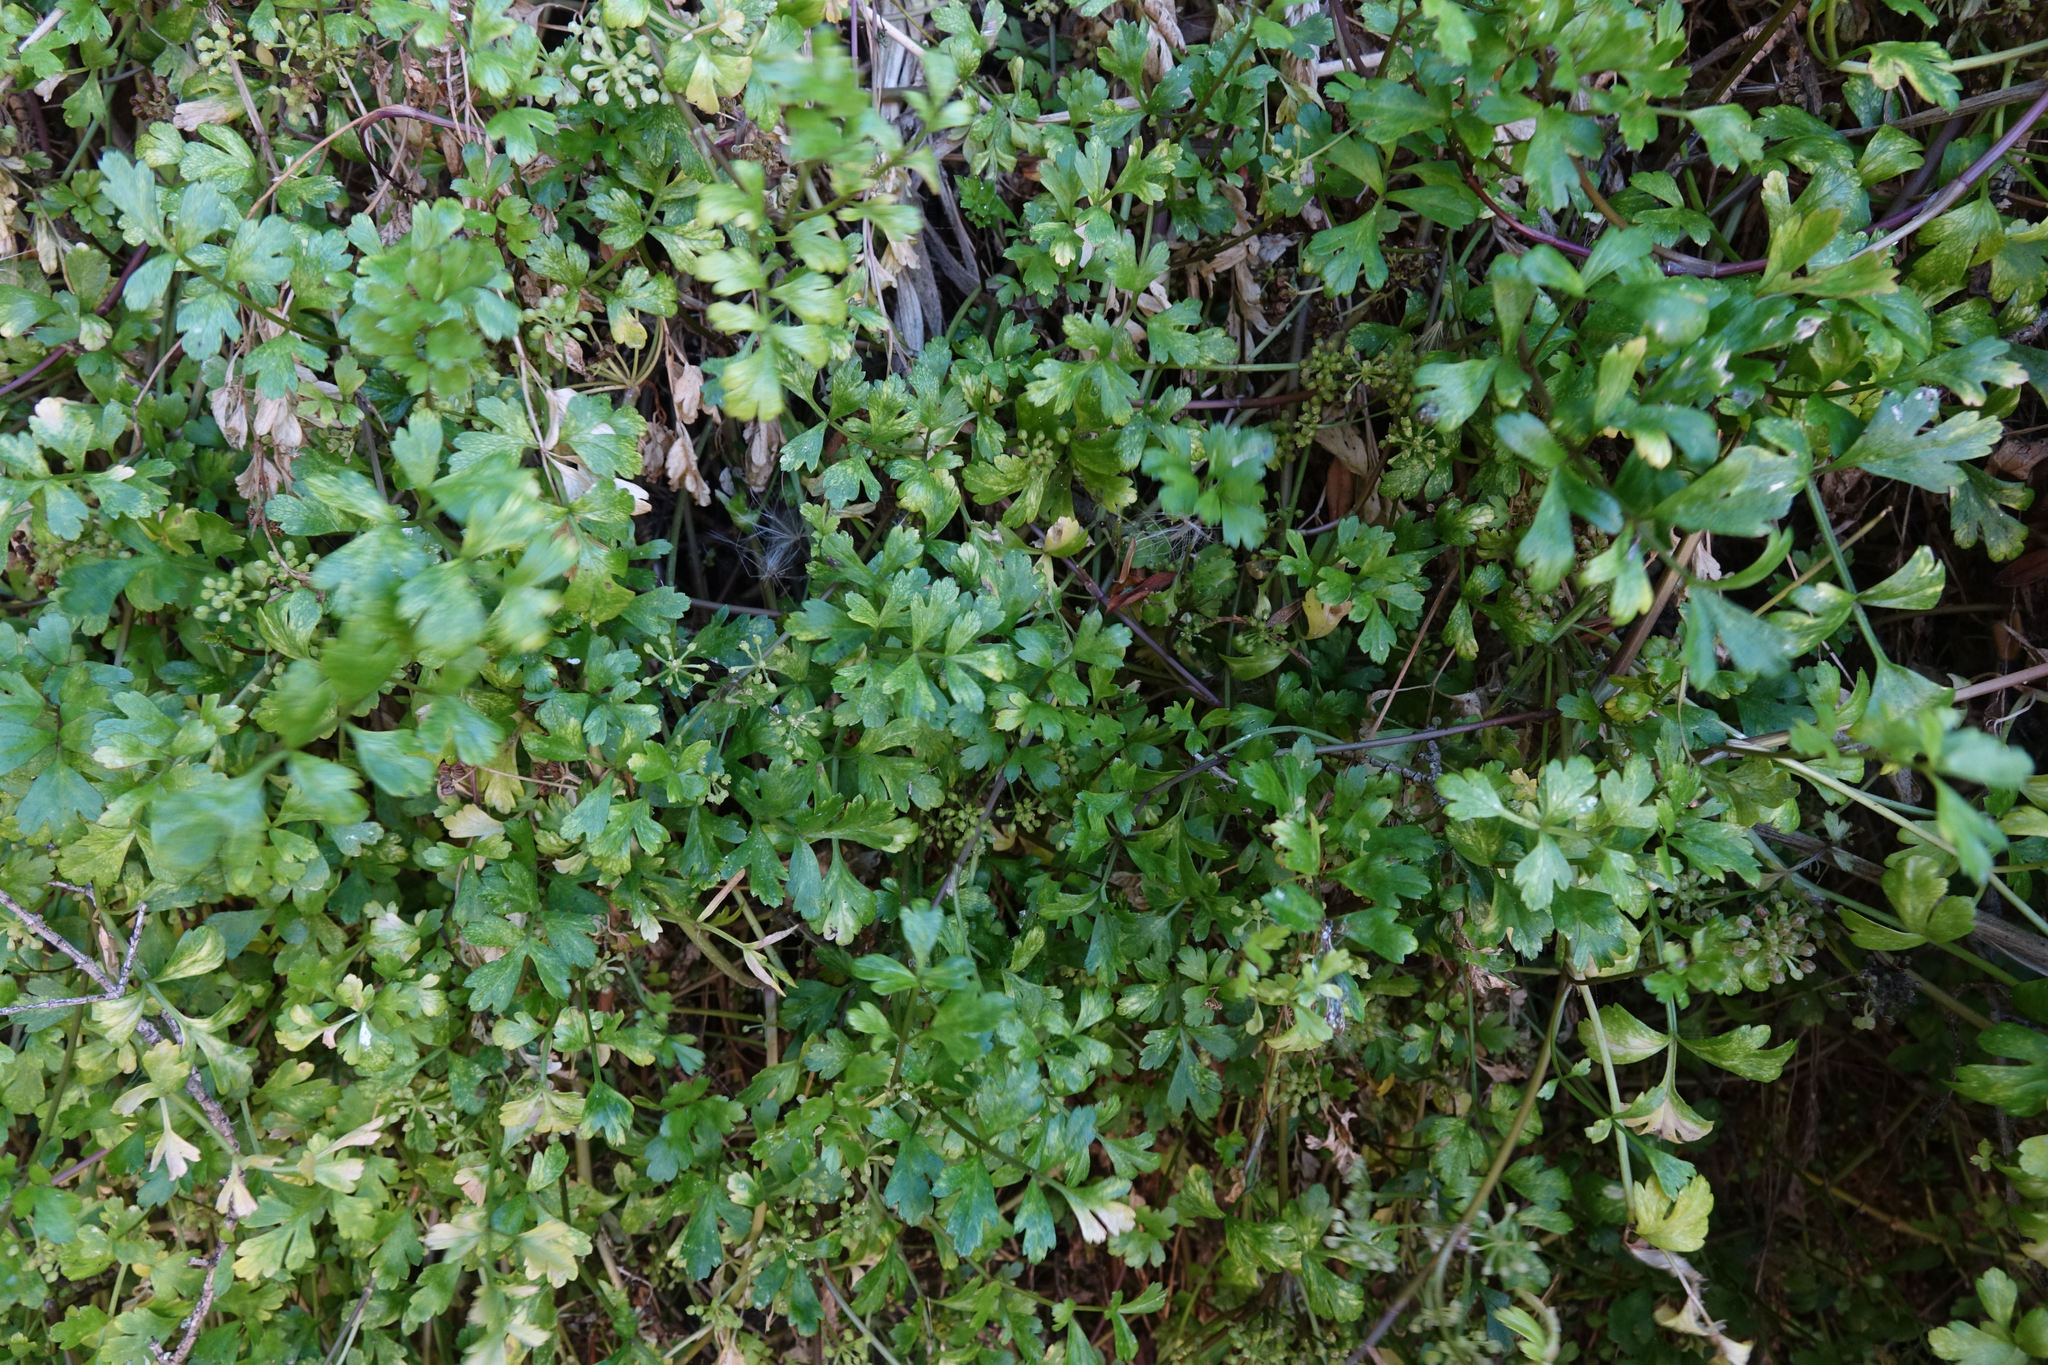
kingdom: Plantae
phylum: Tracheophyta
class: Magnoliopsida
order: Apiales
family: Apiaceae
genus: Apium
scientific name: Apium prostratum
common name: Prostrate marshwort
